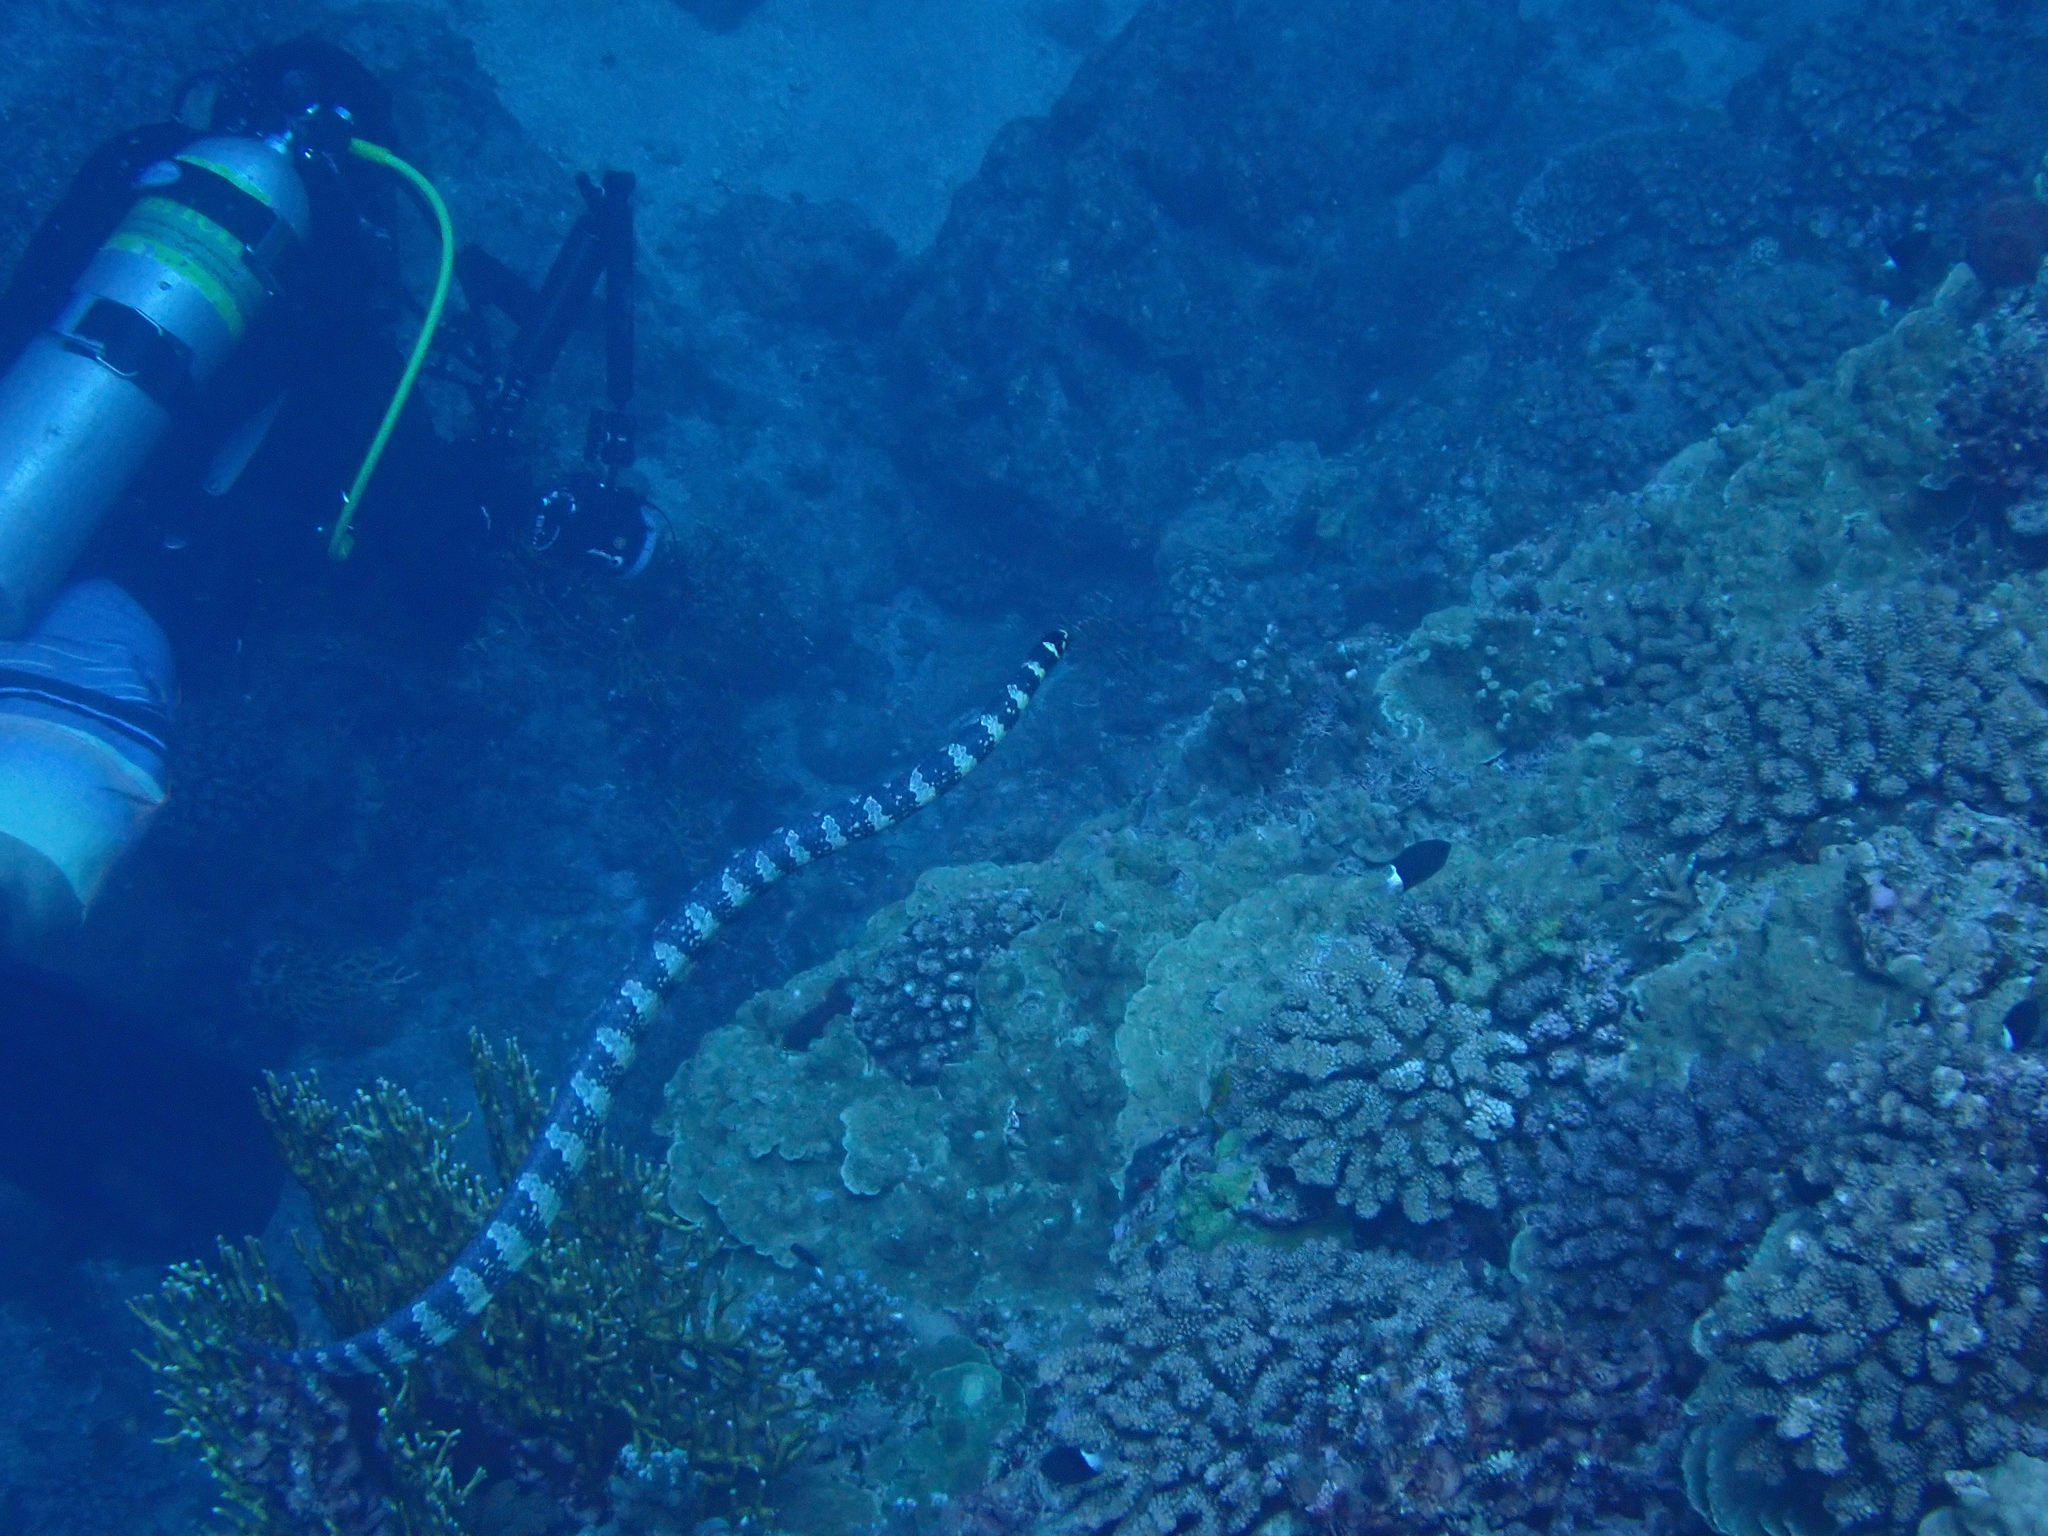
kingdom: Animalia
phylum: Chordata
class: Squamata
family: Elapidae
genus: Emydocephalus
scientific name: Emydocephalus ijimae
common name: Turtlehead sea snake
